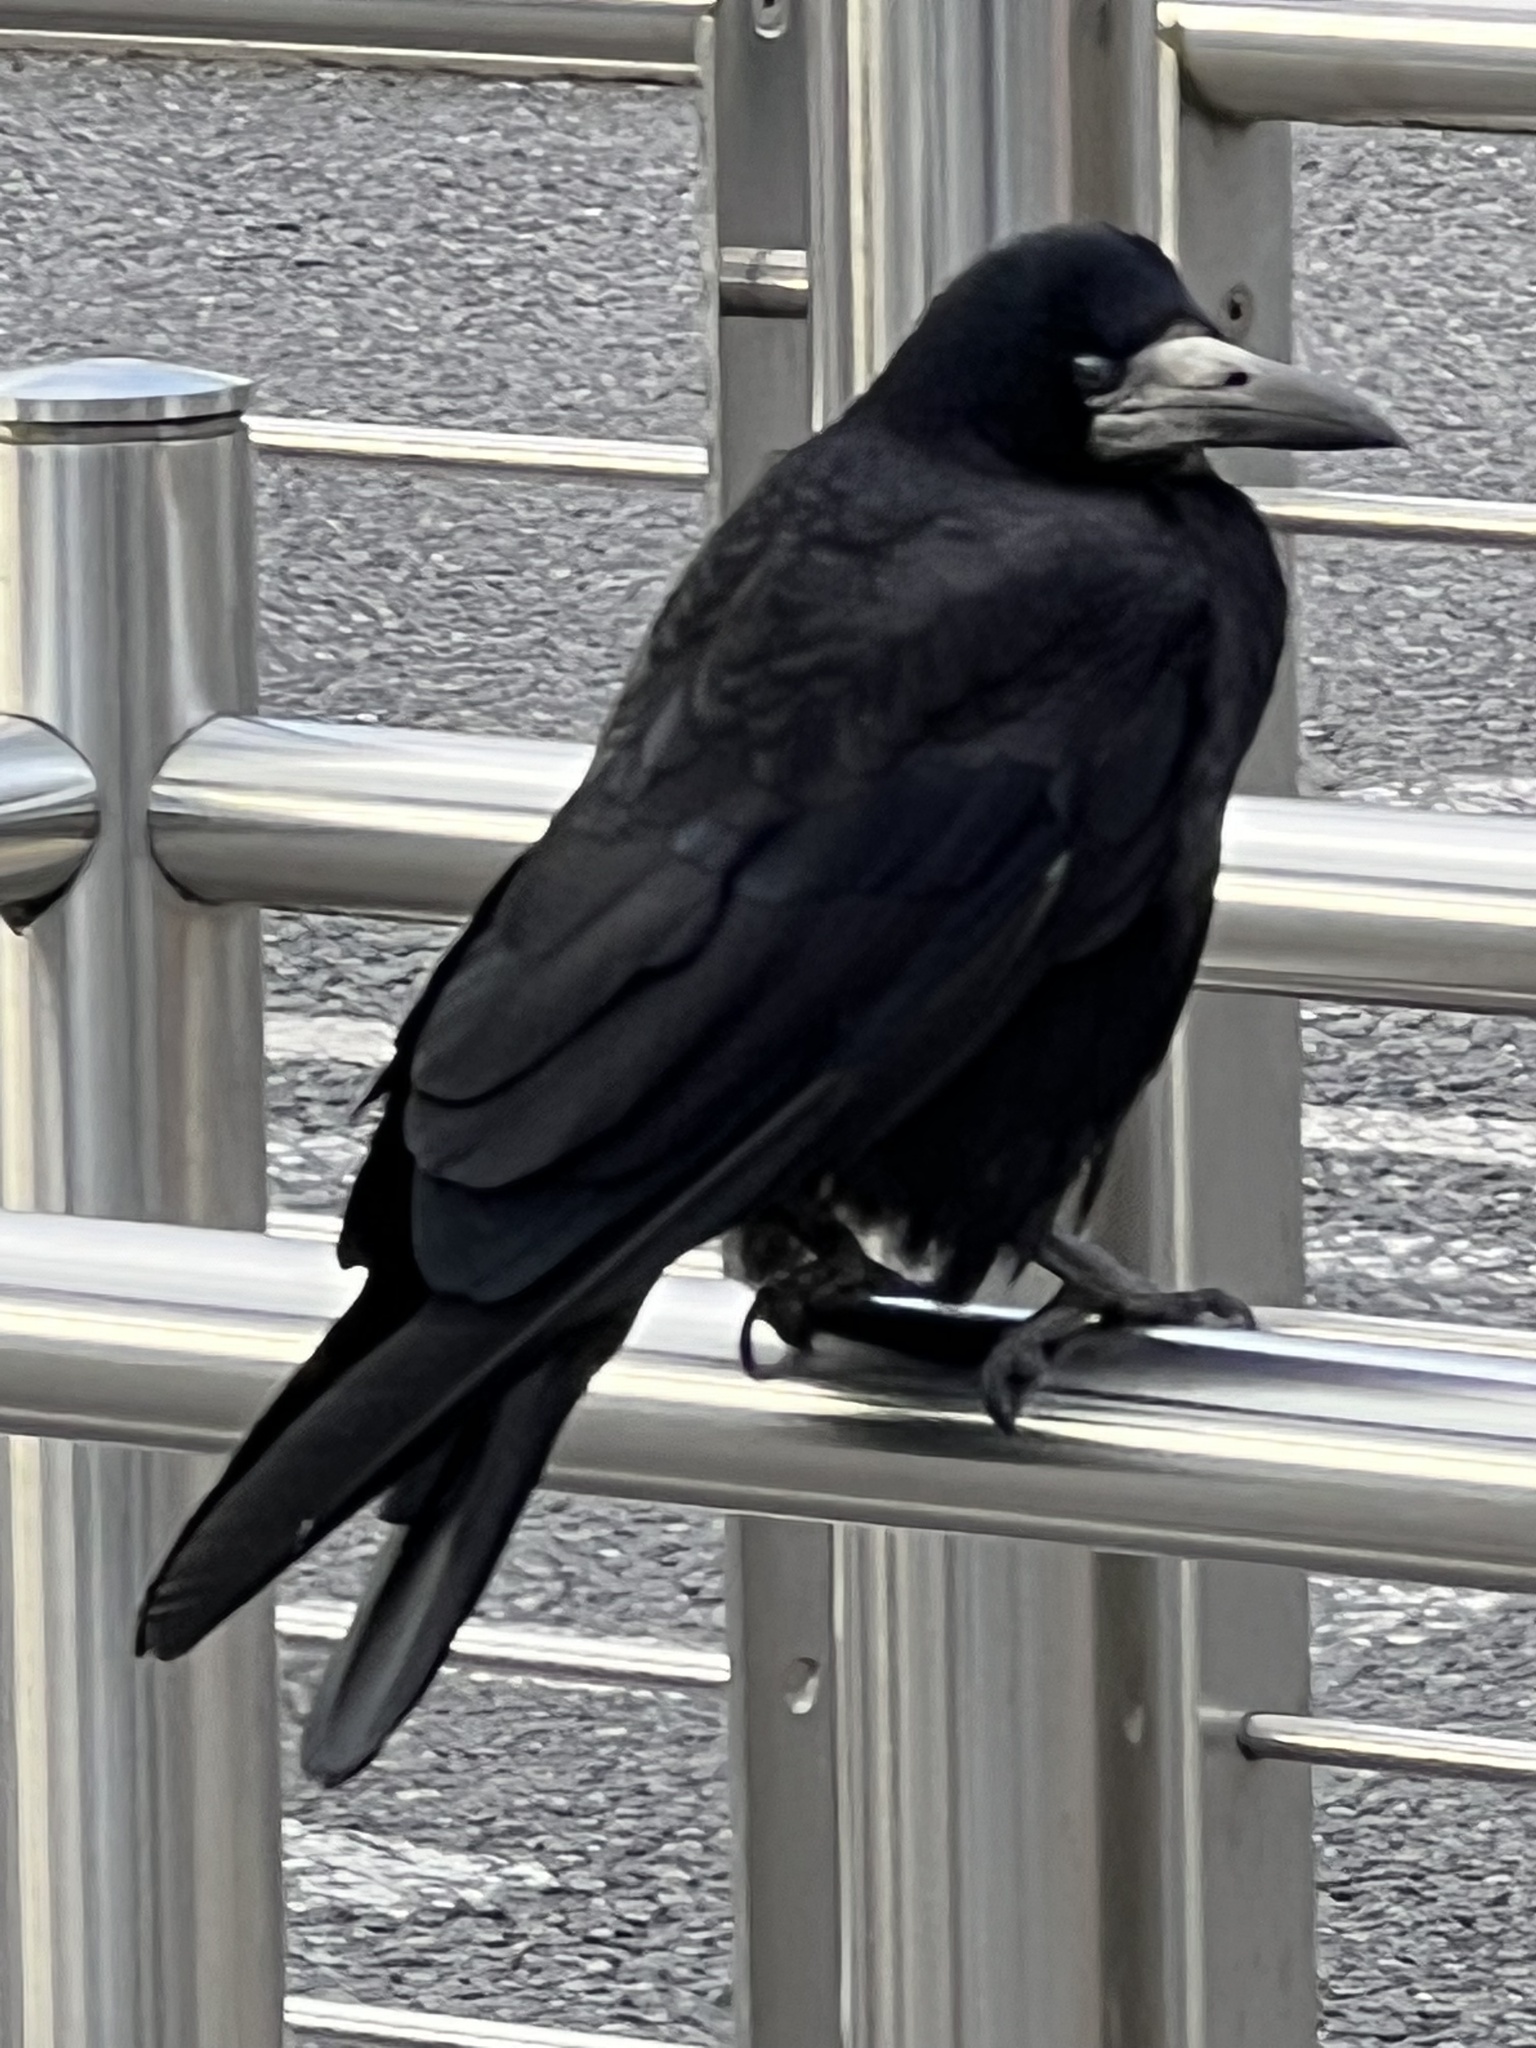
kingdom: Animalia
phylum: Chordata
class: Aves
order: Passeriformes
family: Corvidae
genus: Corvus
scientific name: Corvus frugilegus
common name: Rook
